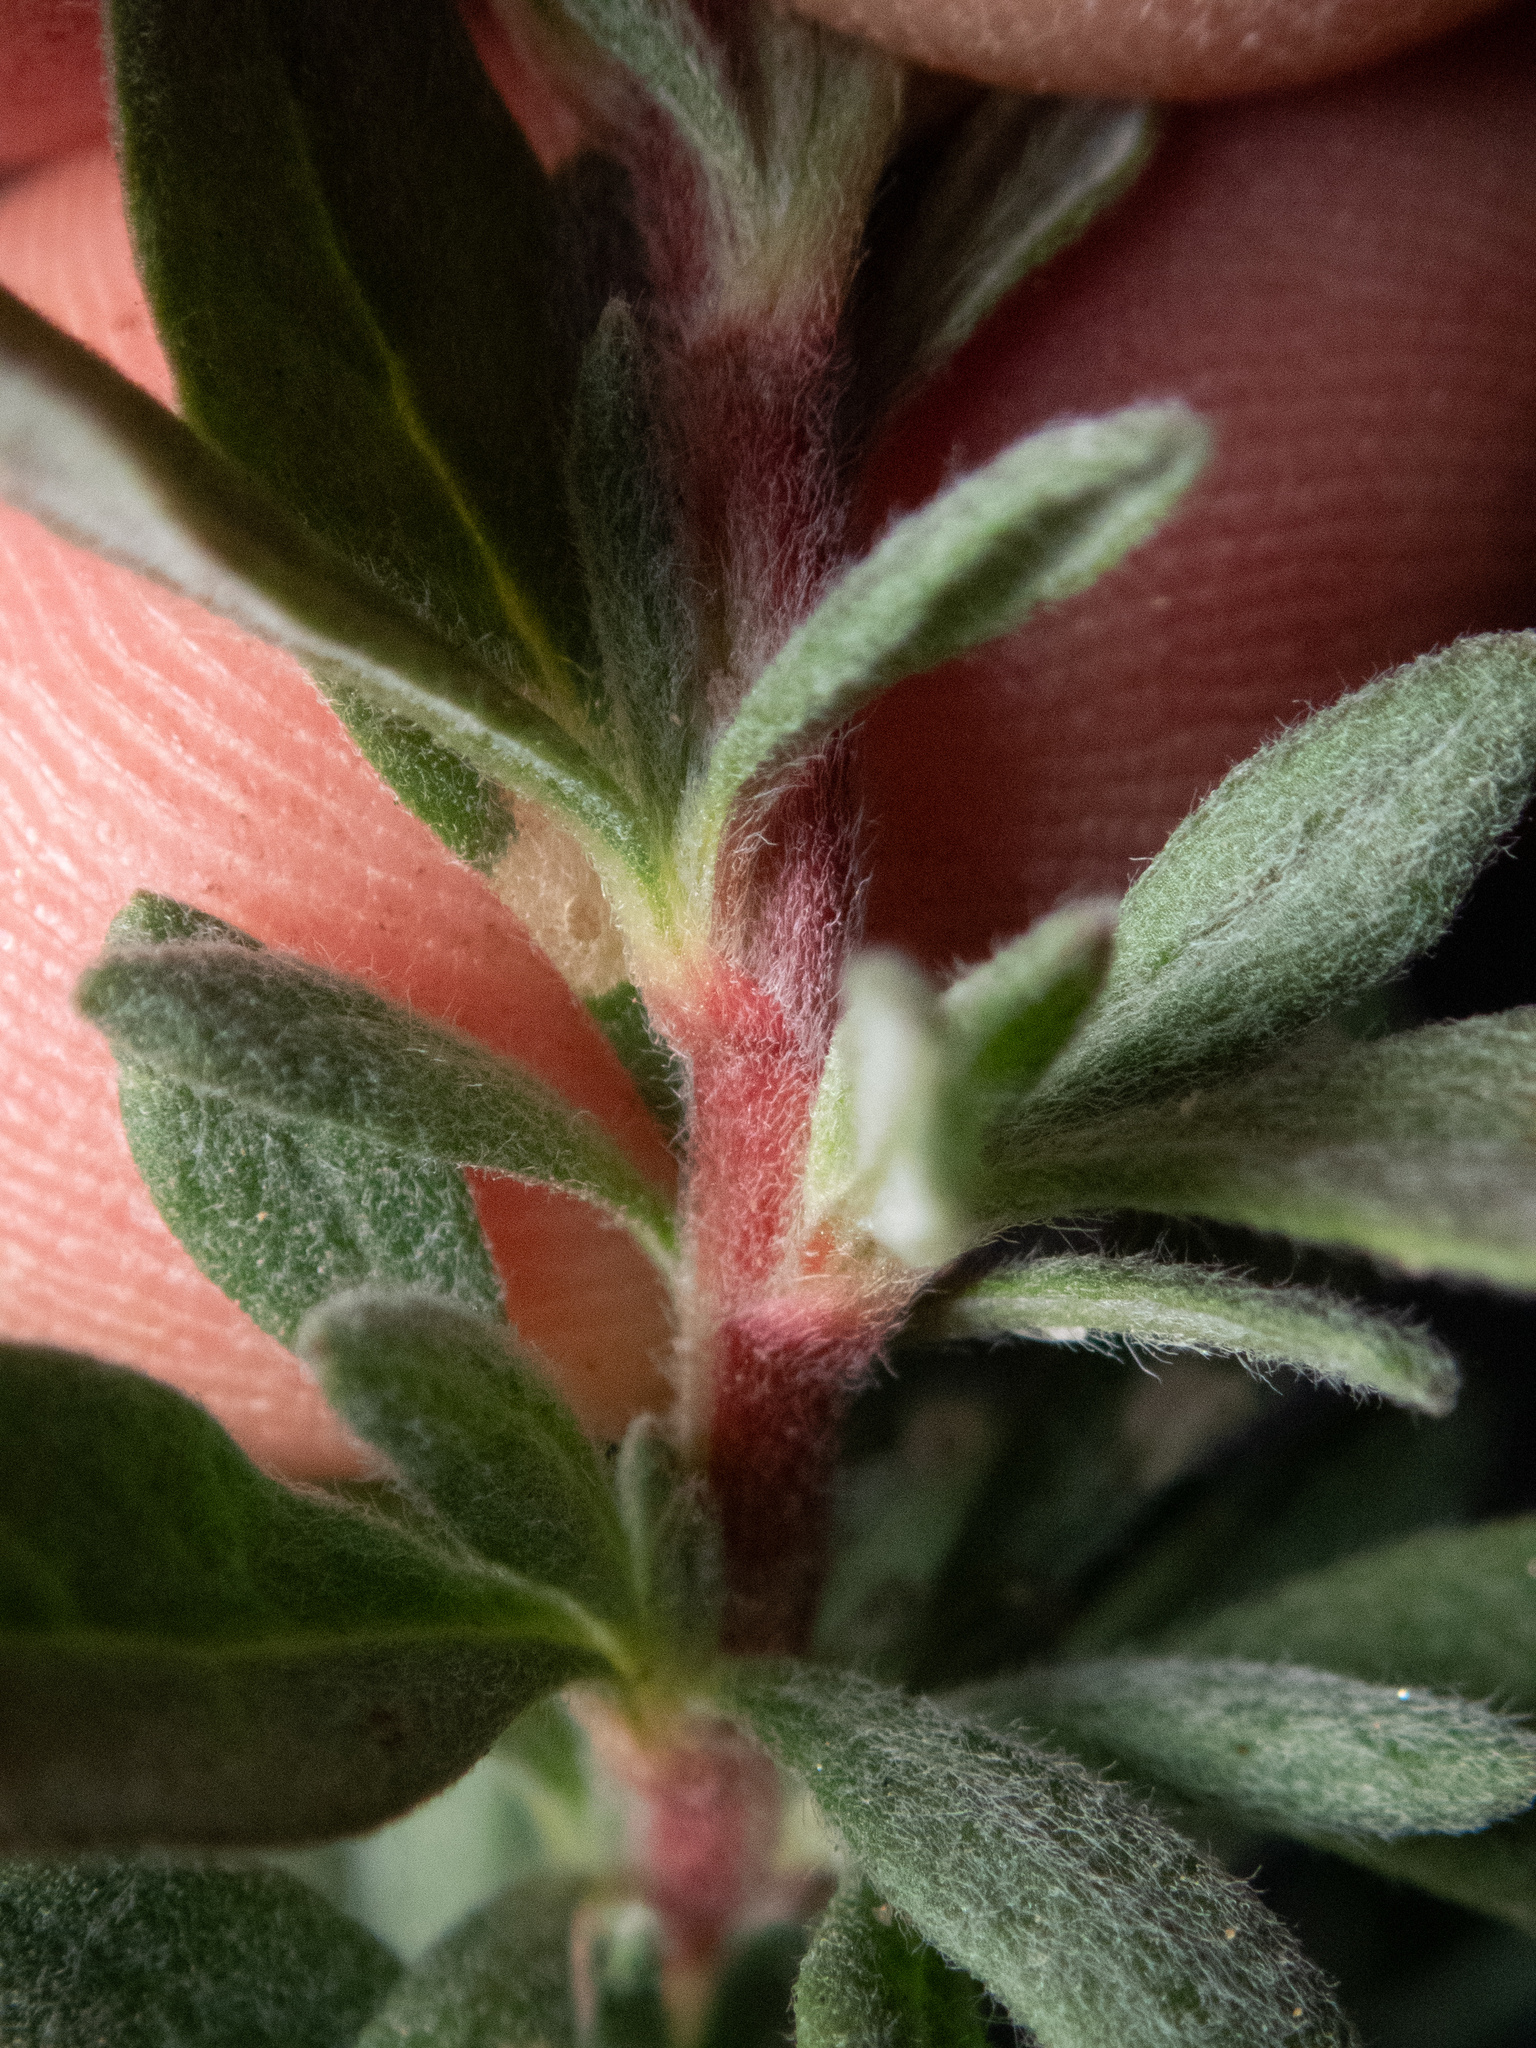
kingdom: Plantae
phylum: Tracheophyta
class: Magnoliopsida
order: Caryophyllales
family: Polygonaceae
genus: Eriogonum
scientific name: Eriogonum fasciculatum
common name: California wild buckwheat
